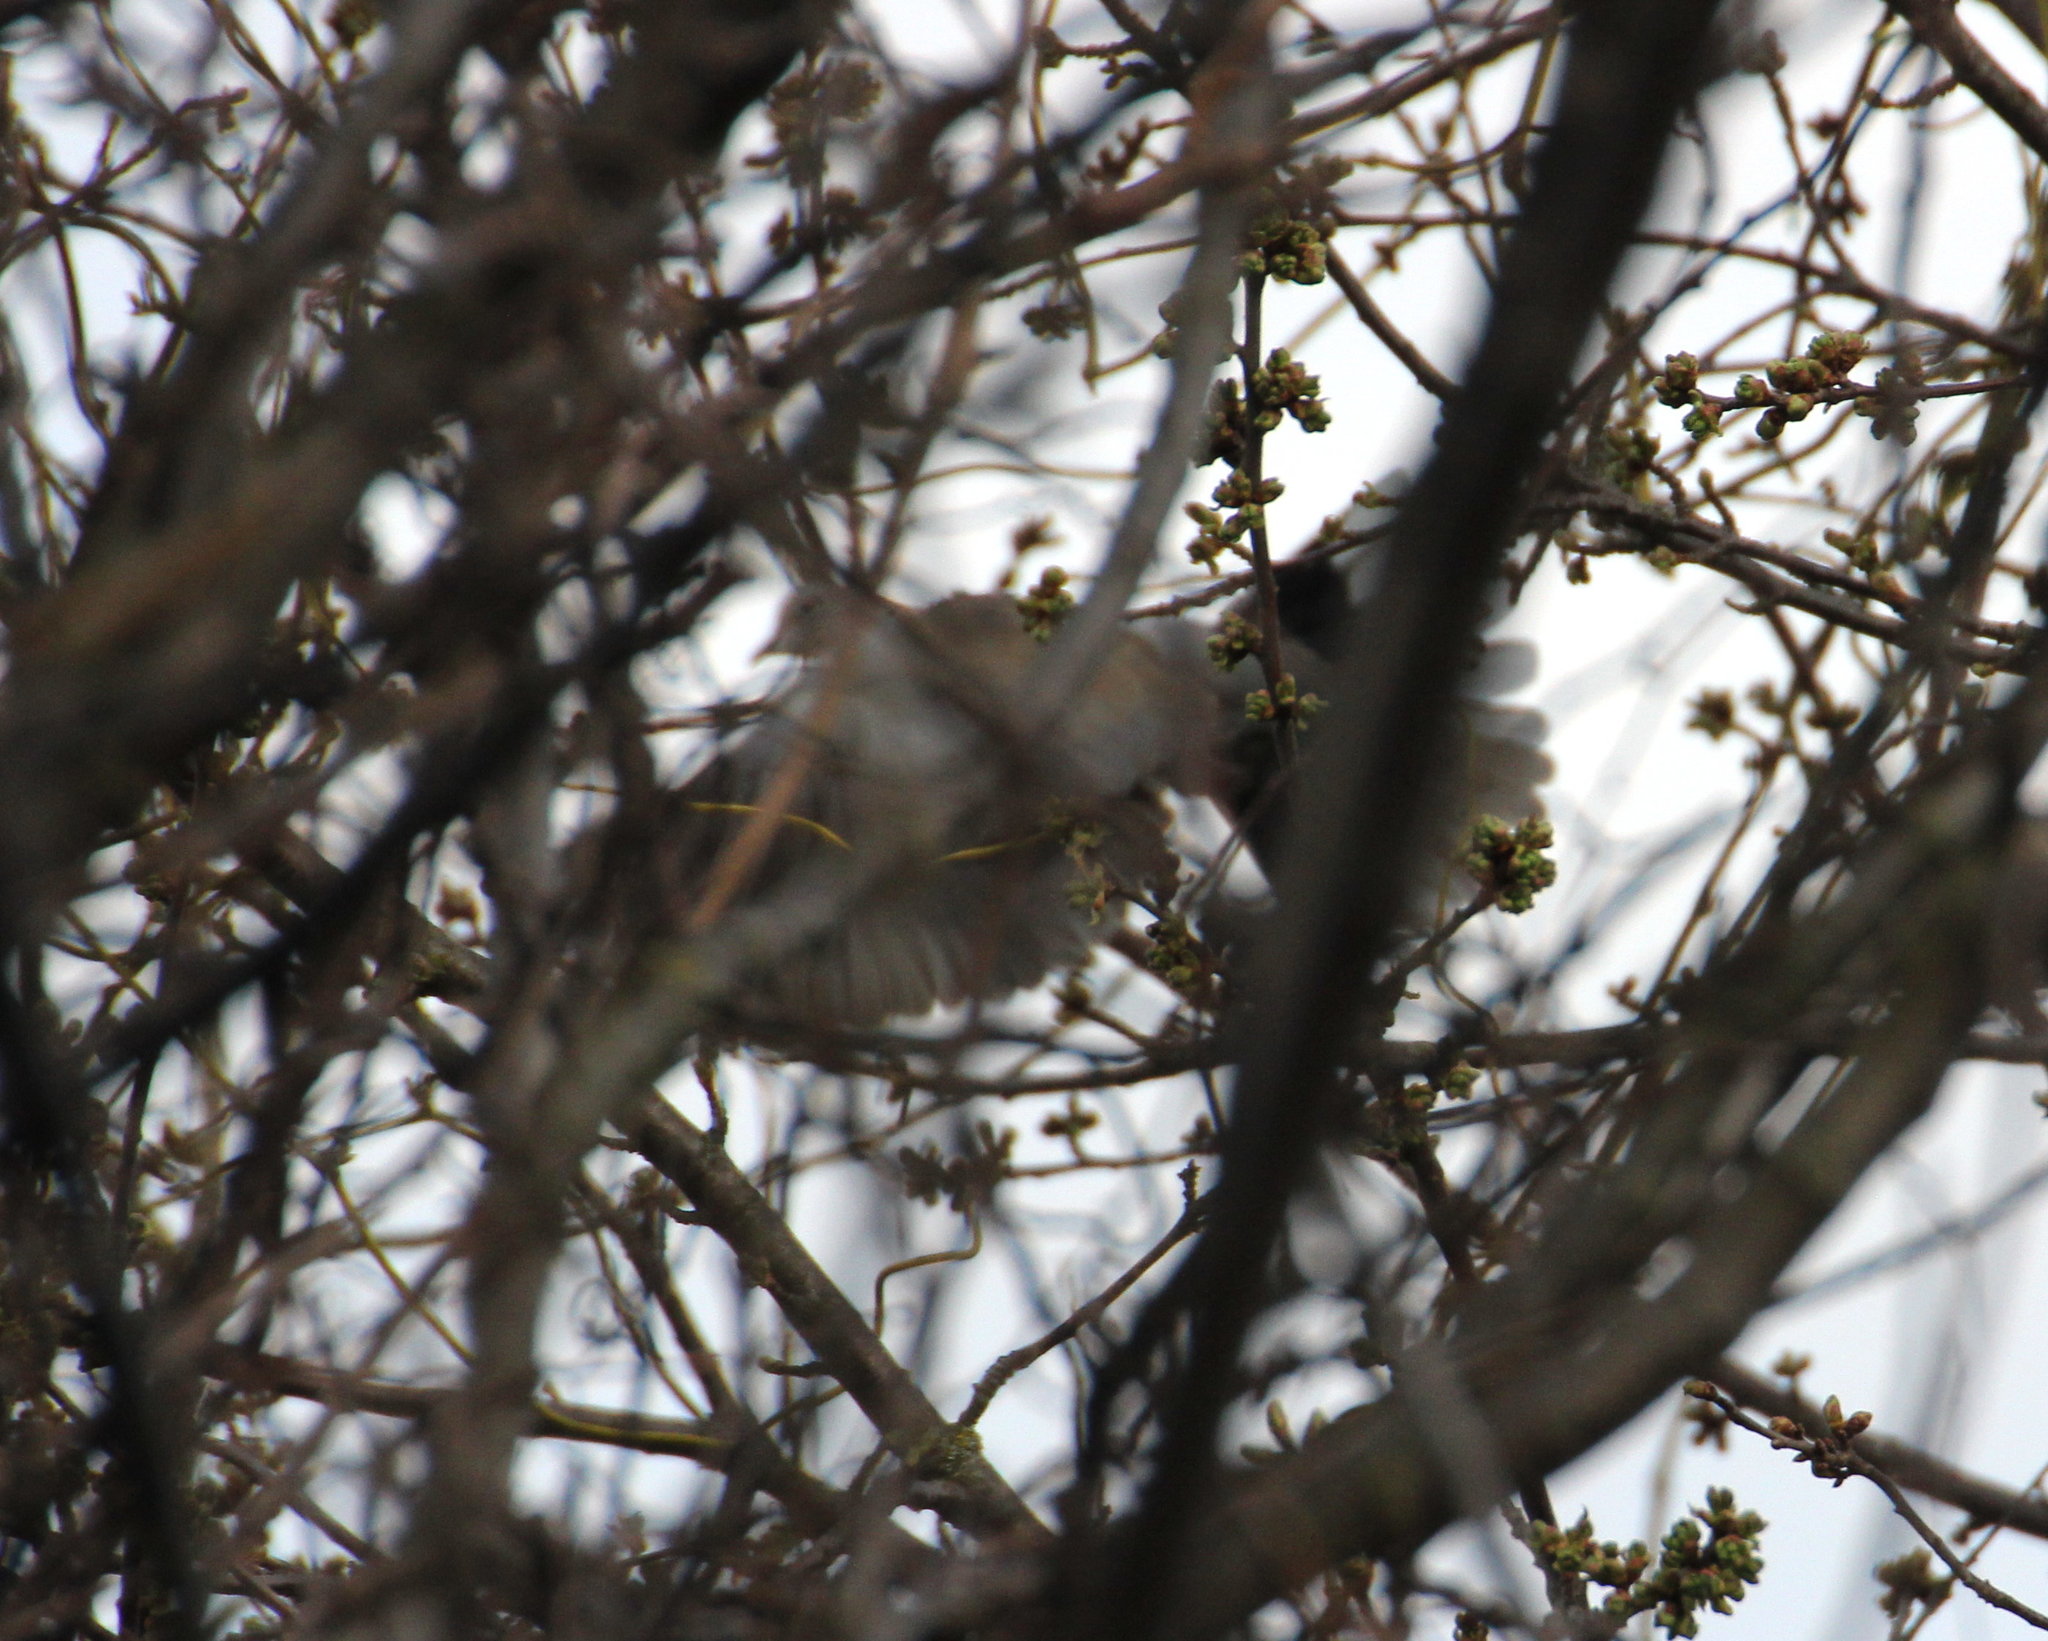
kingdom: Animalia
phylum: Chordata
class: Aves
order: Columbiformes
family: Columbidae
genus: Streptopelia
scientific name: Streptopelia decaocto
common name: Eurasian collared dove
